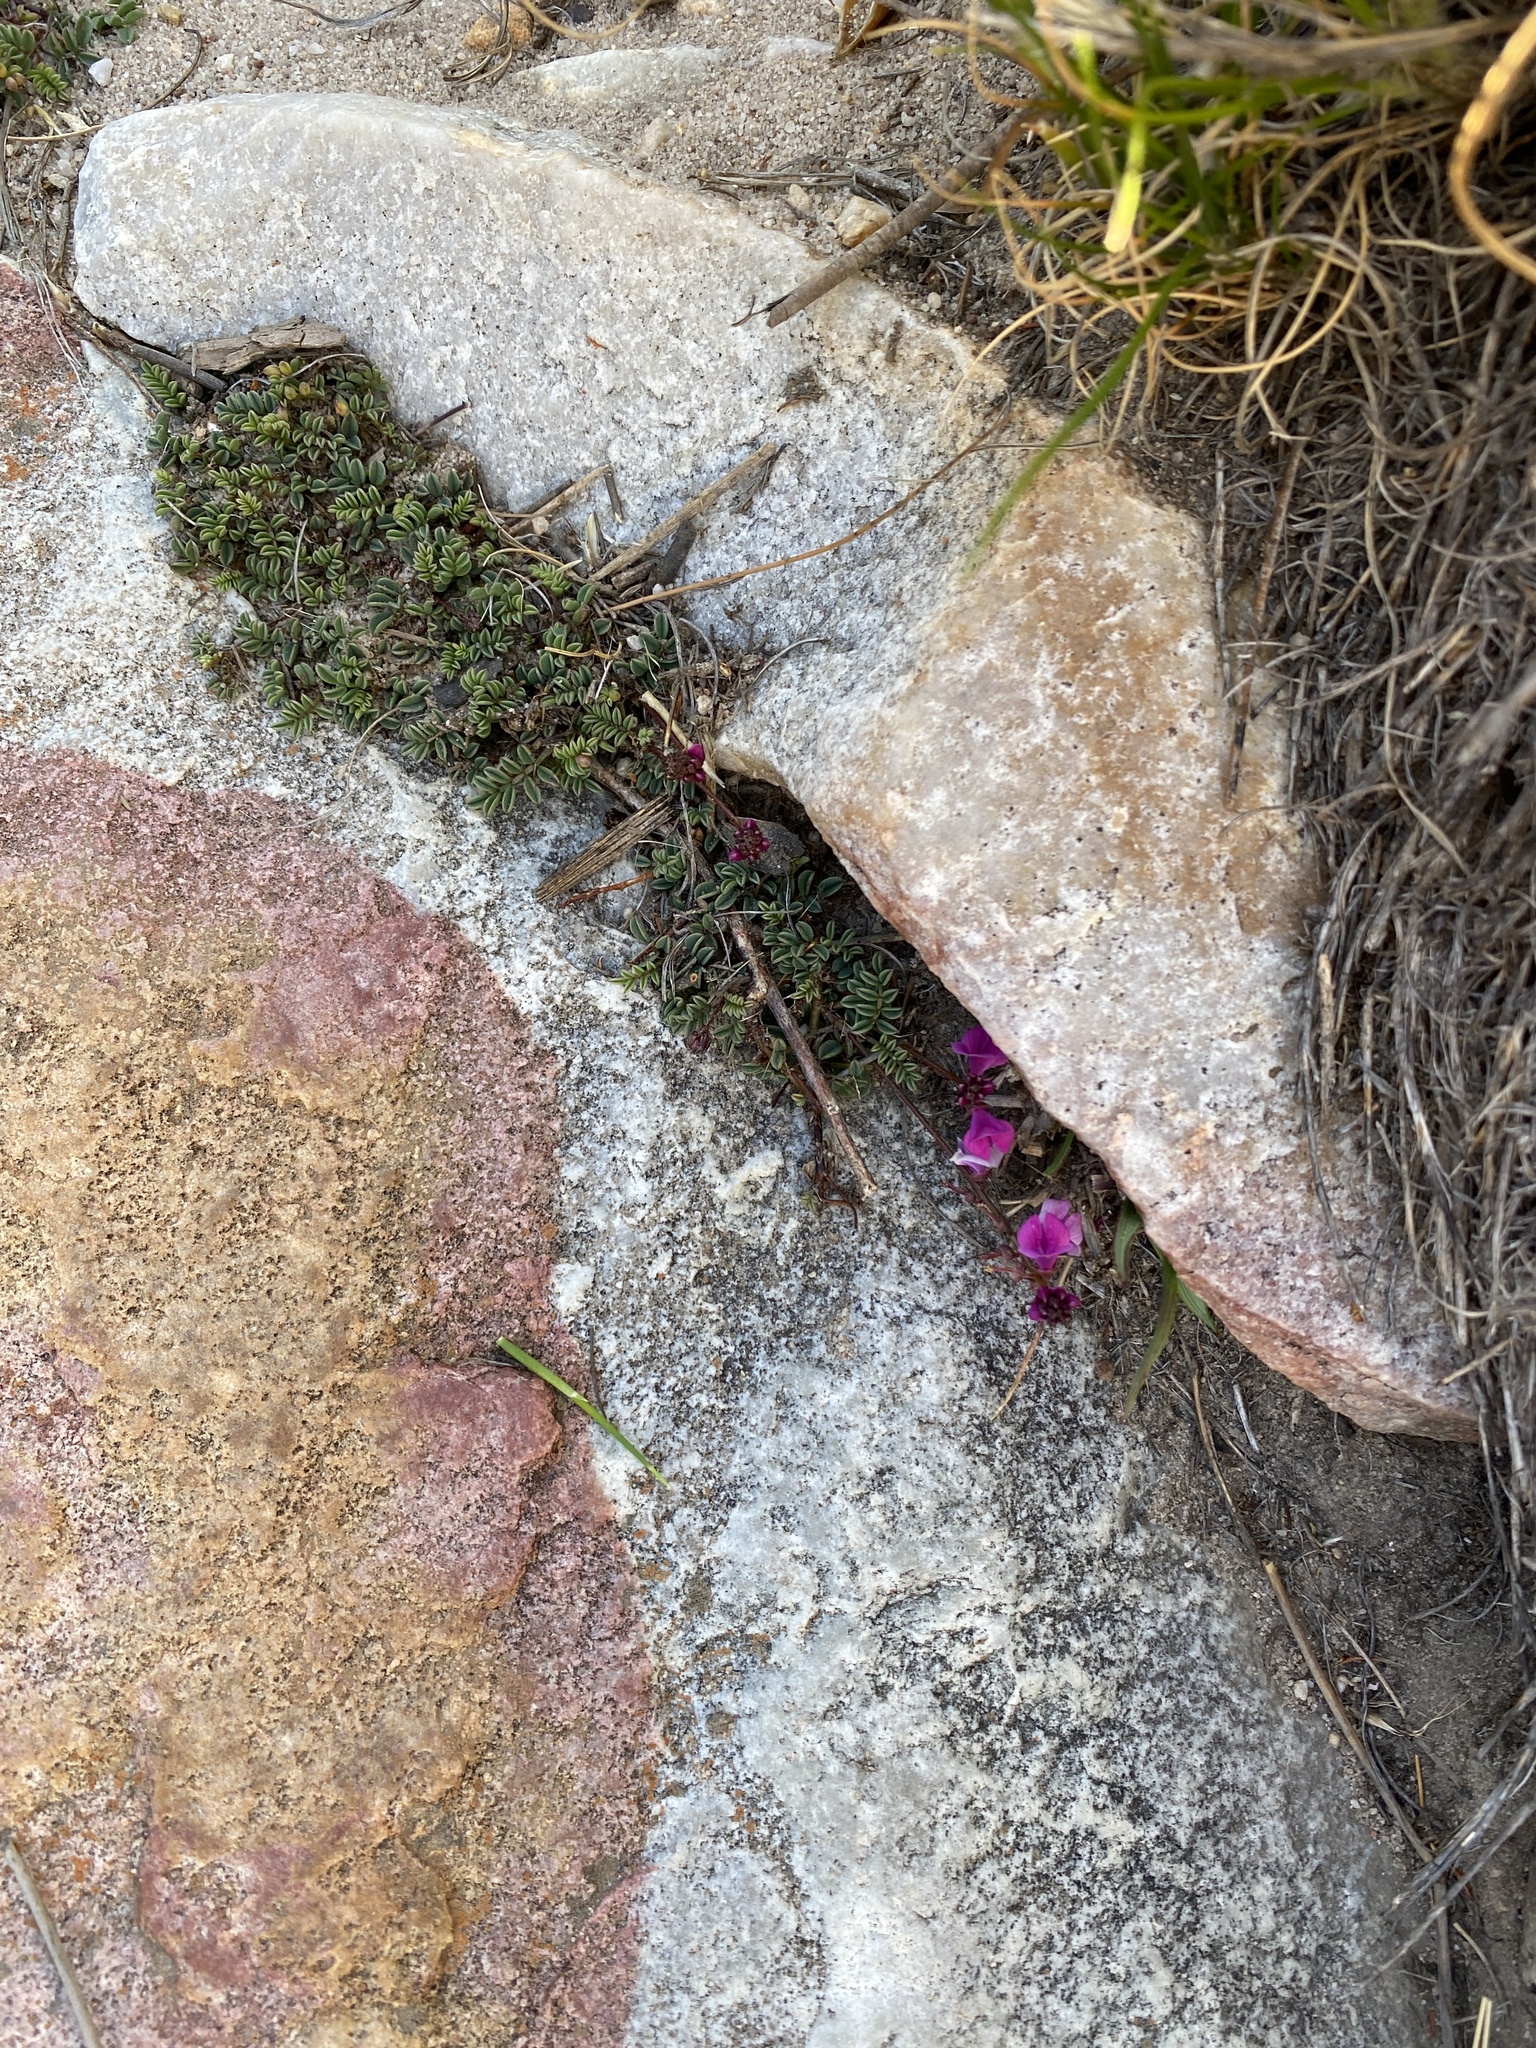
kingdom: Plantae
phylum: Tracheophyta
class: Magnoliopsida
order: Fabales
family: Fabaceae
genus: Indigofera
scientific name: Indigofera capillaris
